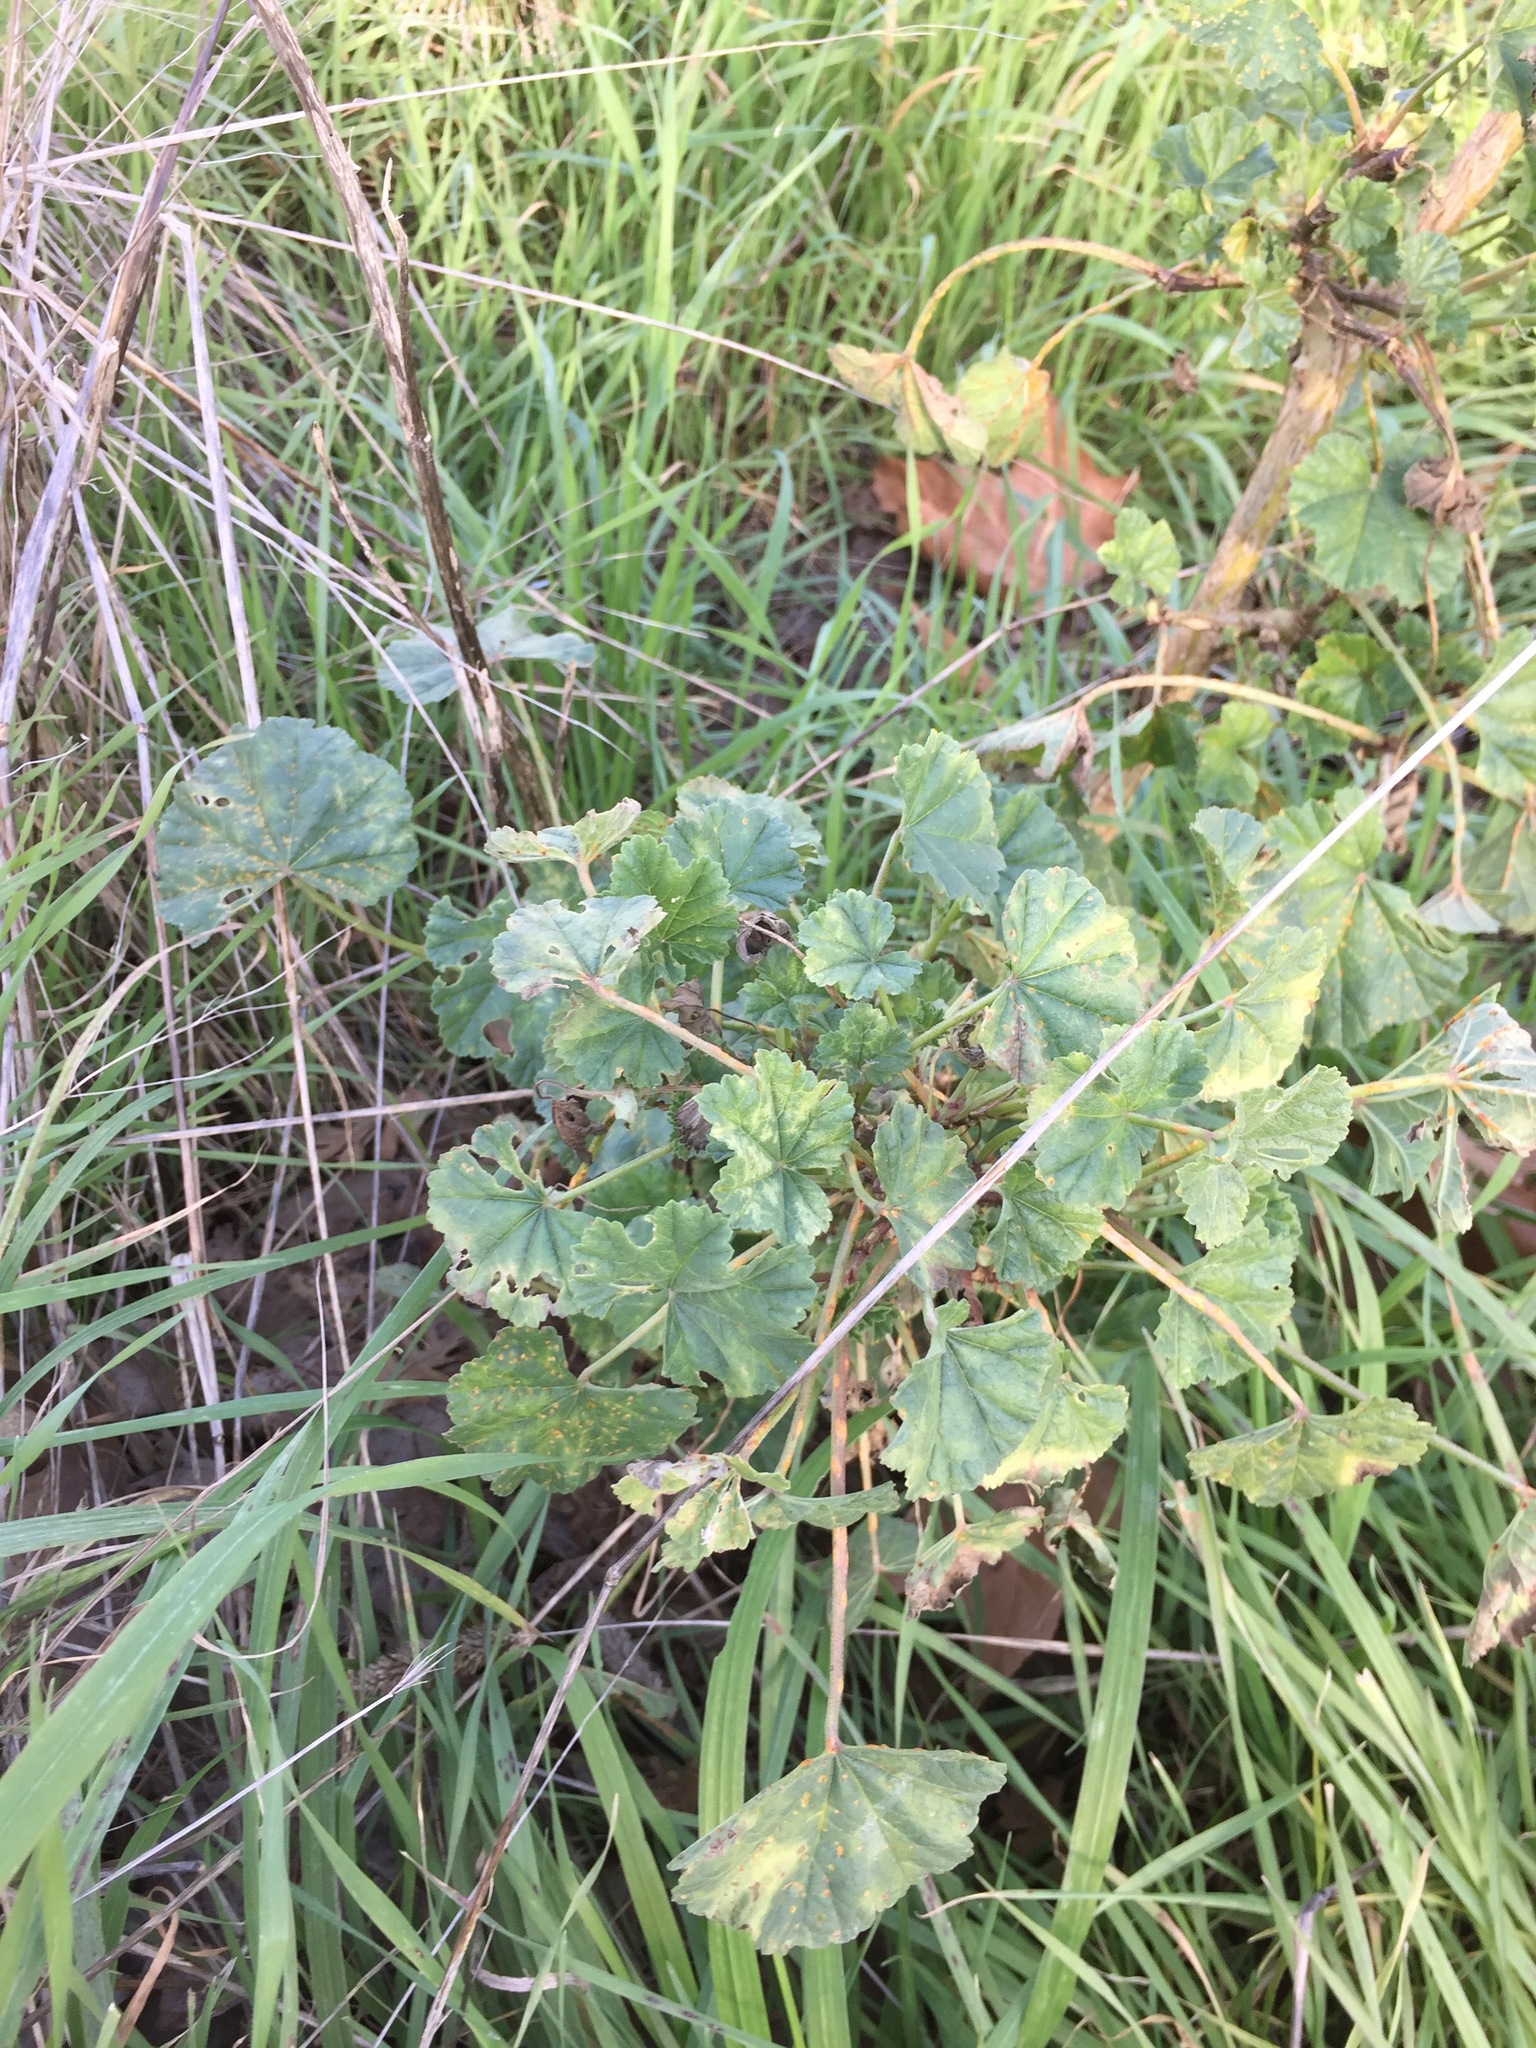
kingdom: Plantae
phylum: Tracheophyta
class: Magnoliopsida
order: Malvales
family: Malvaceae
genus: Malva
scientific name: Malva
